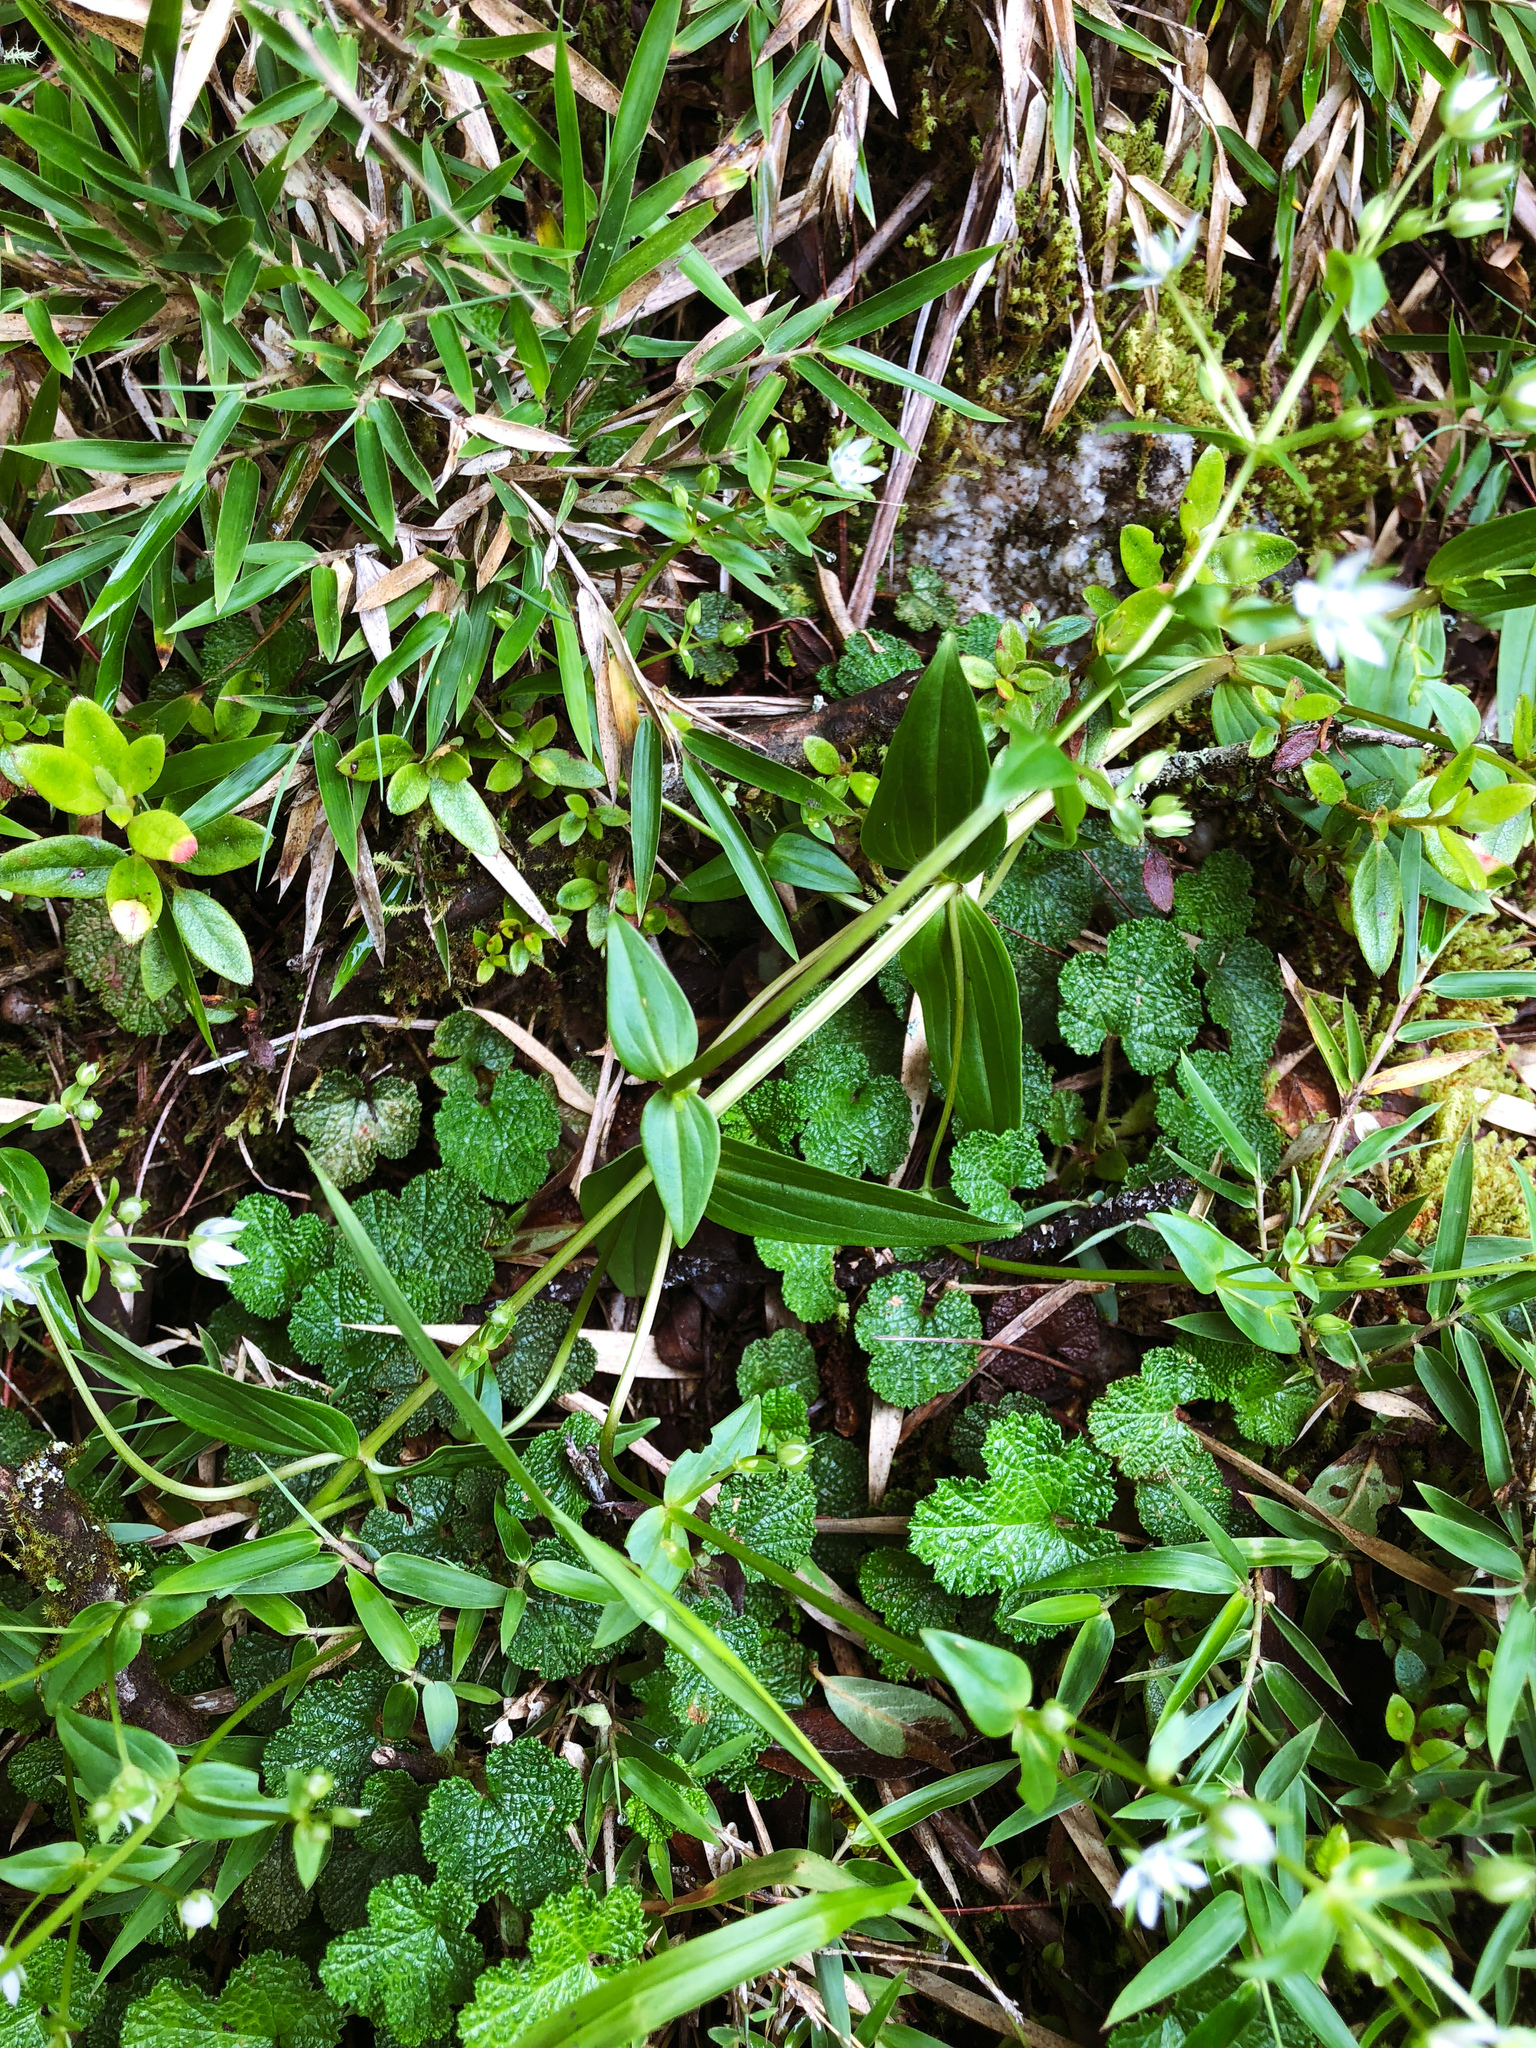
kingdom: Plantae
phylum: Tracheophyta
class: Magnoliopsida
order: Gentianales
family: Gentianaceae
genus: Swertia
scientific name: Swertia macrosperma
